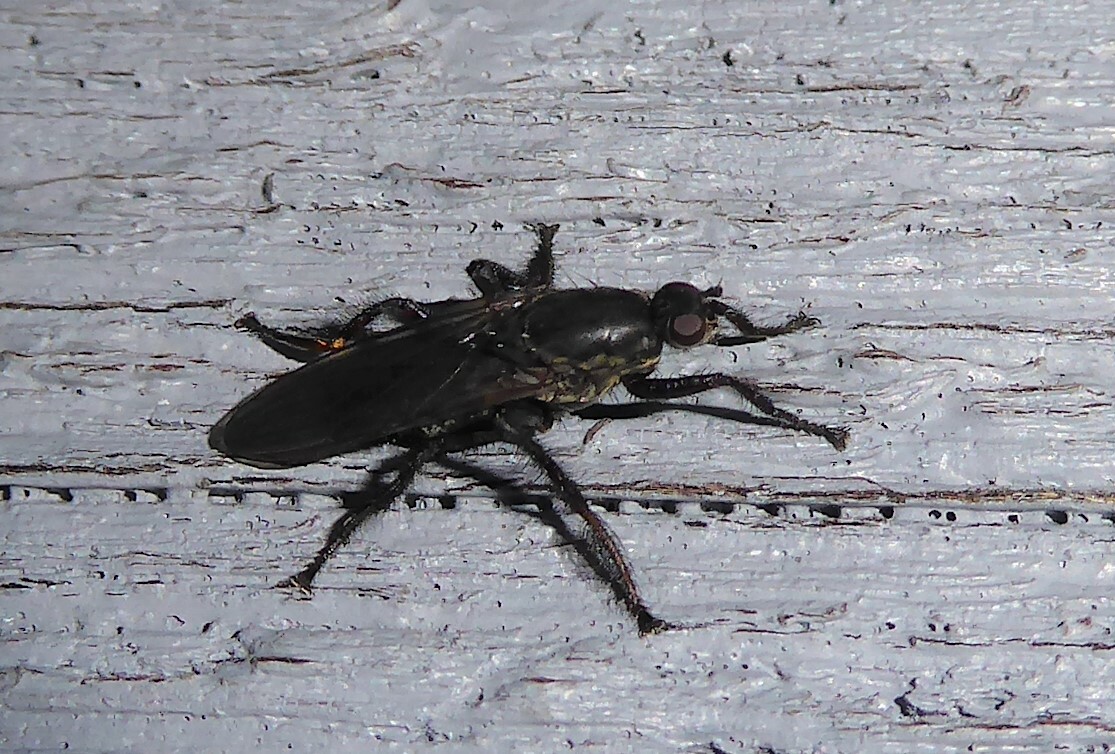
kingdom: Animalia
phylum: Arthropoda
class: Insecta
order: Diptera
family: Coelopidae
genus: Chaetocoelopa
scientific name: Chaetocoelopa littoralis
